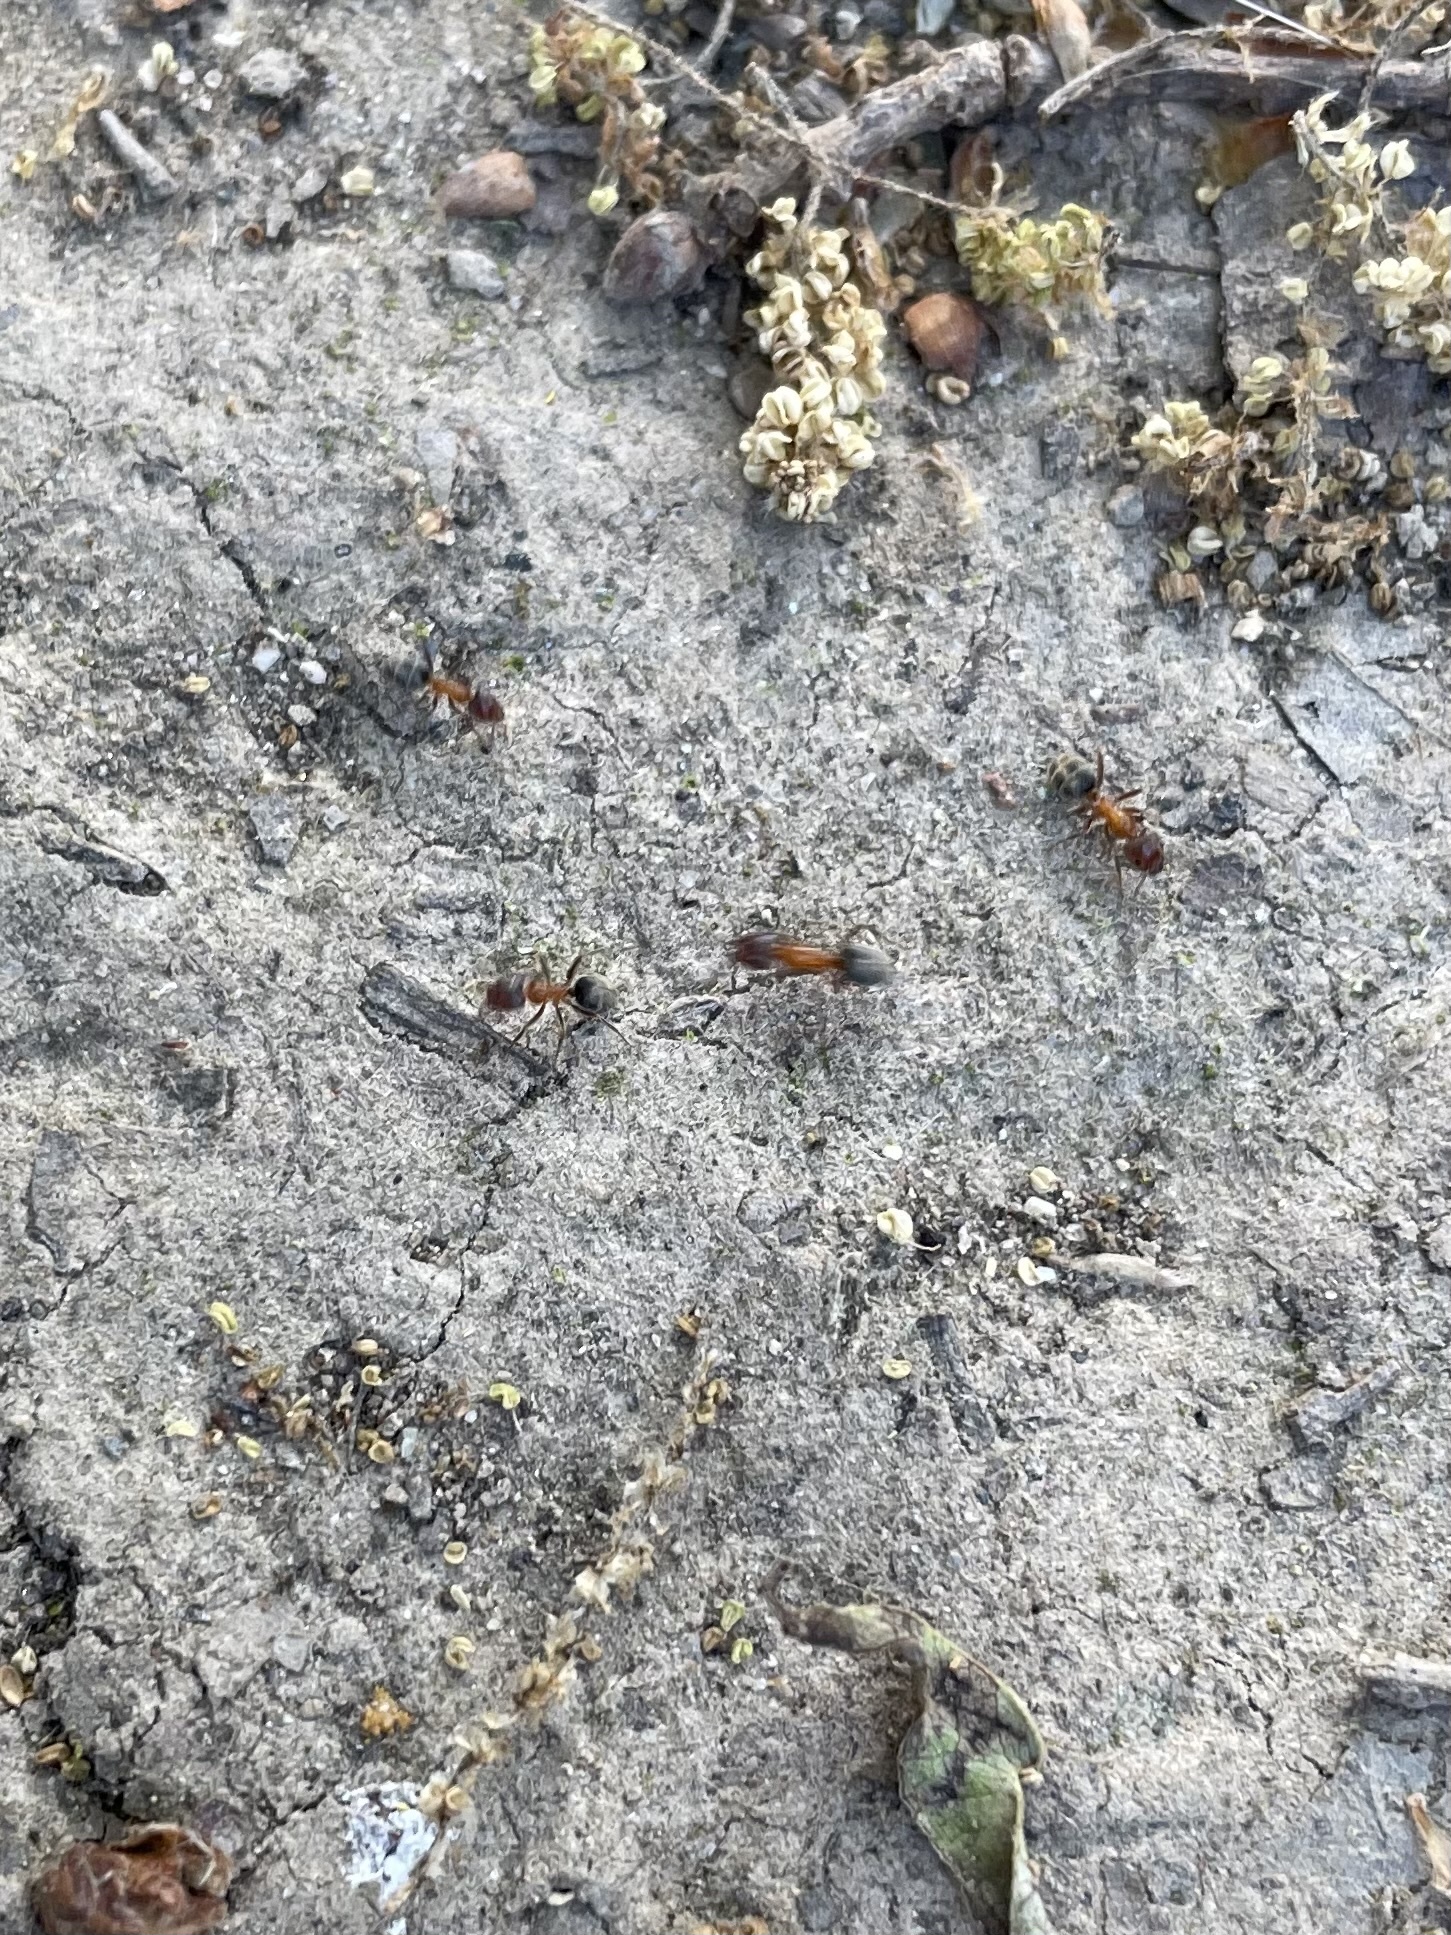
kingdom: Animalia
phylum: Arthropoda
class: Insecta
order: Hymenoptera
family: Formicidae
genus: Liometopum
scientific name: Liometopum occidentale
